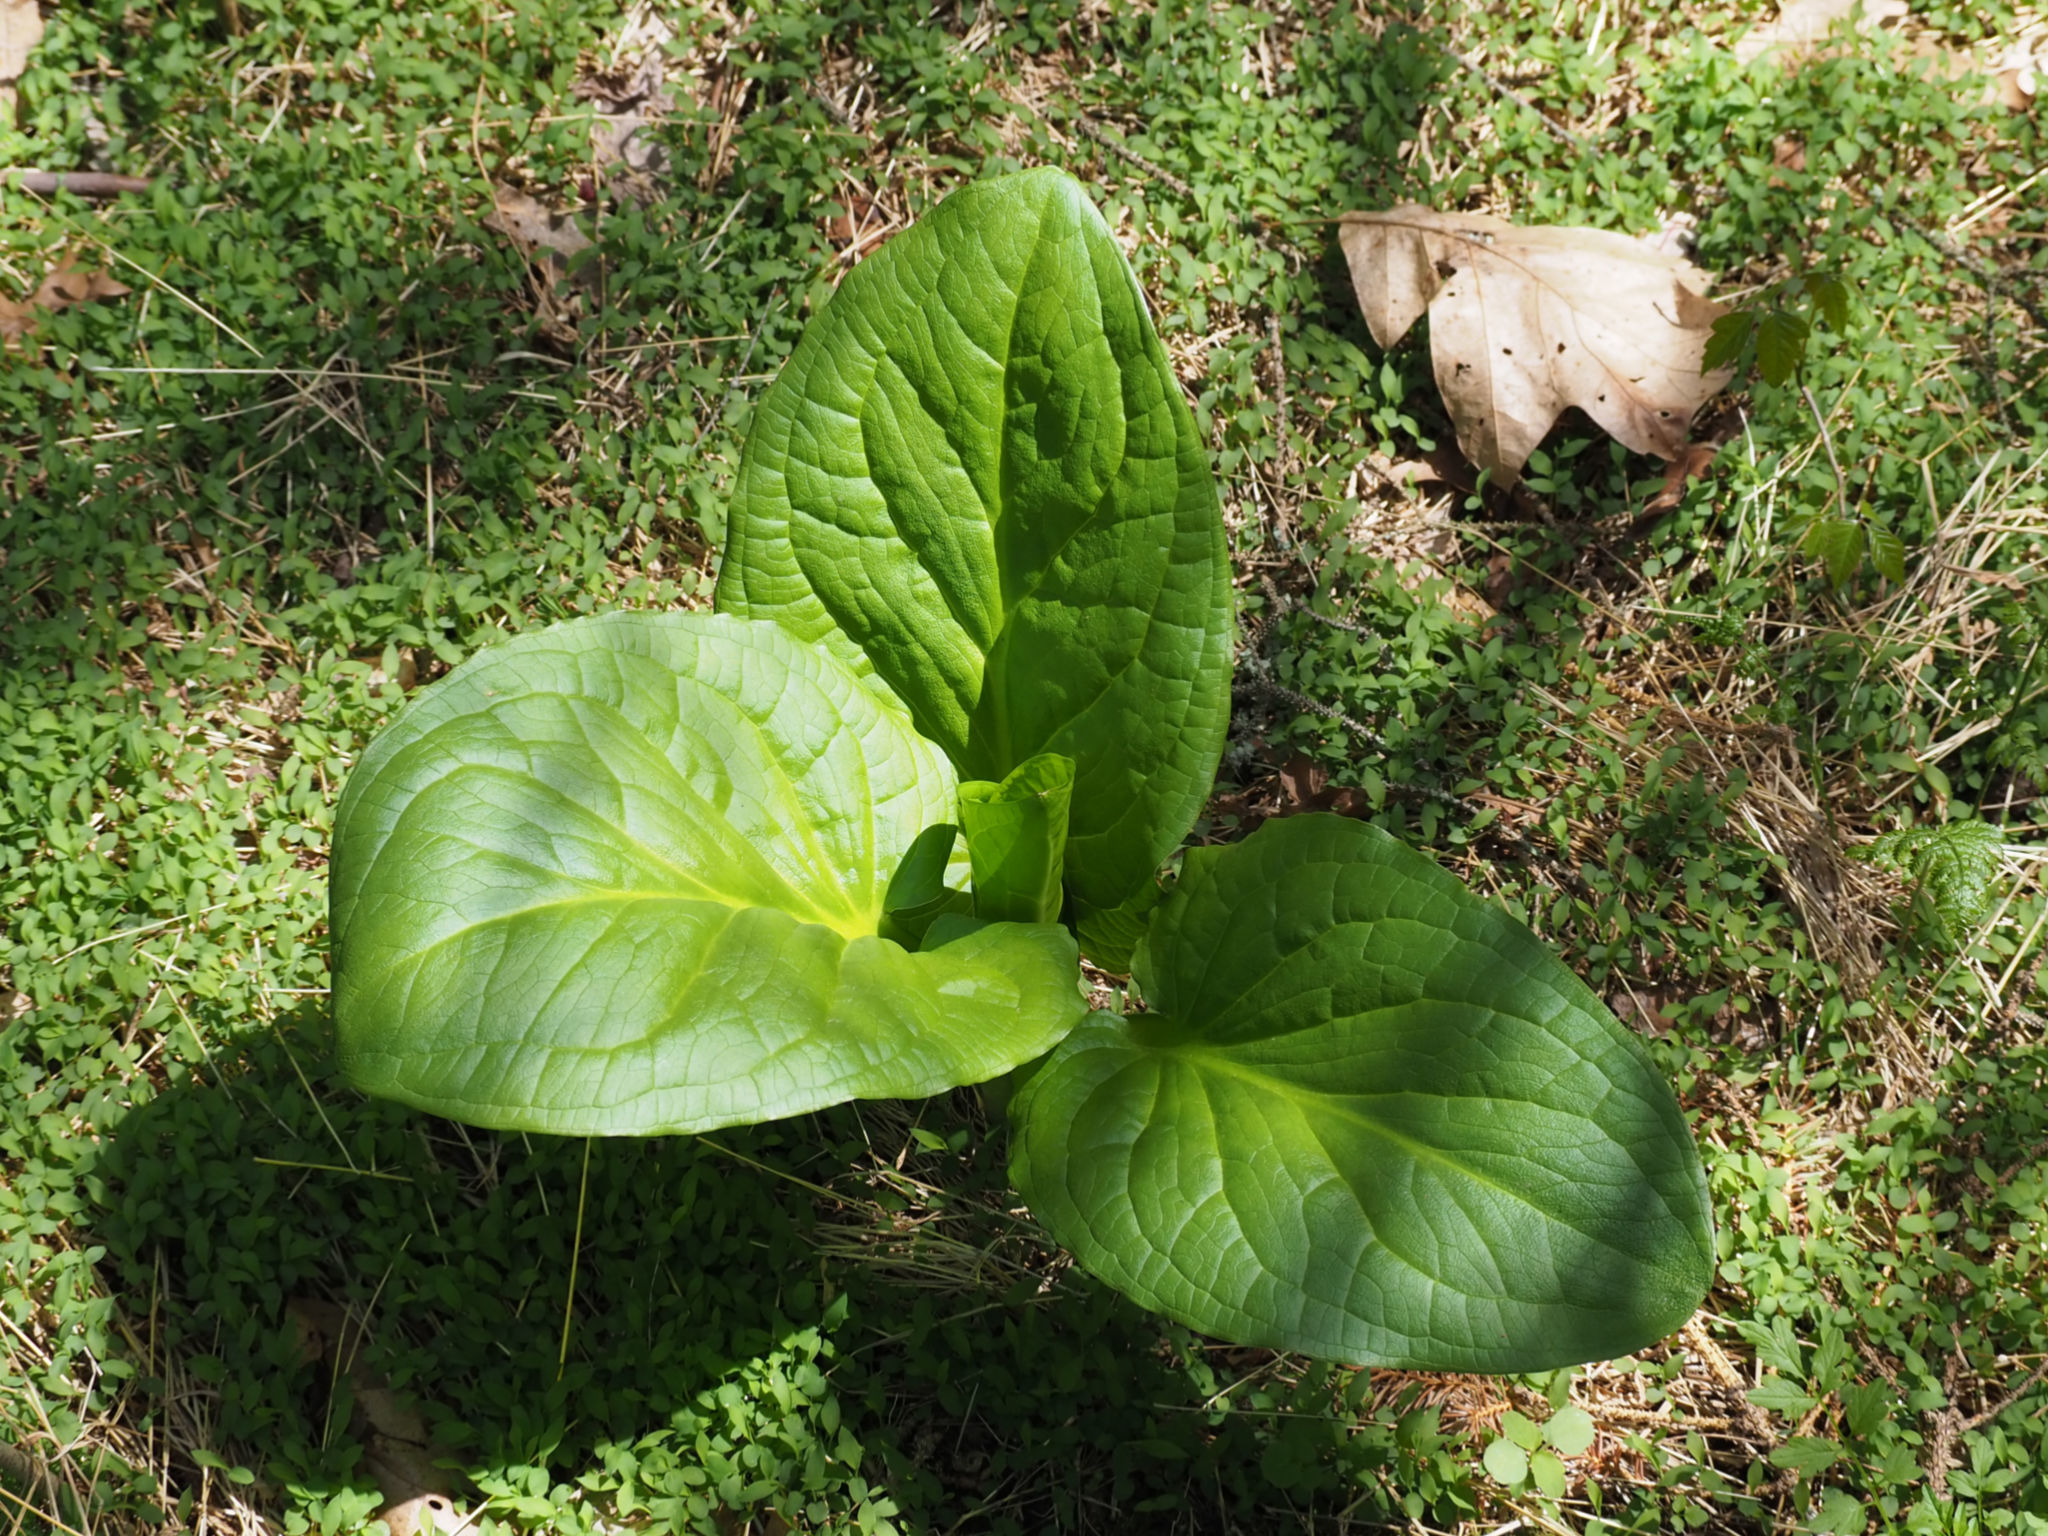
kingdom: Plantae
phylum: Tracheophyta
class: Liliopsida
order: Alismatales
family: Araceae
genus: Symplocarpus
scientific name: Symplocarpus foetidus
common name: Eastern skunk cabbage
